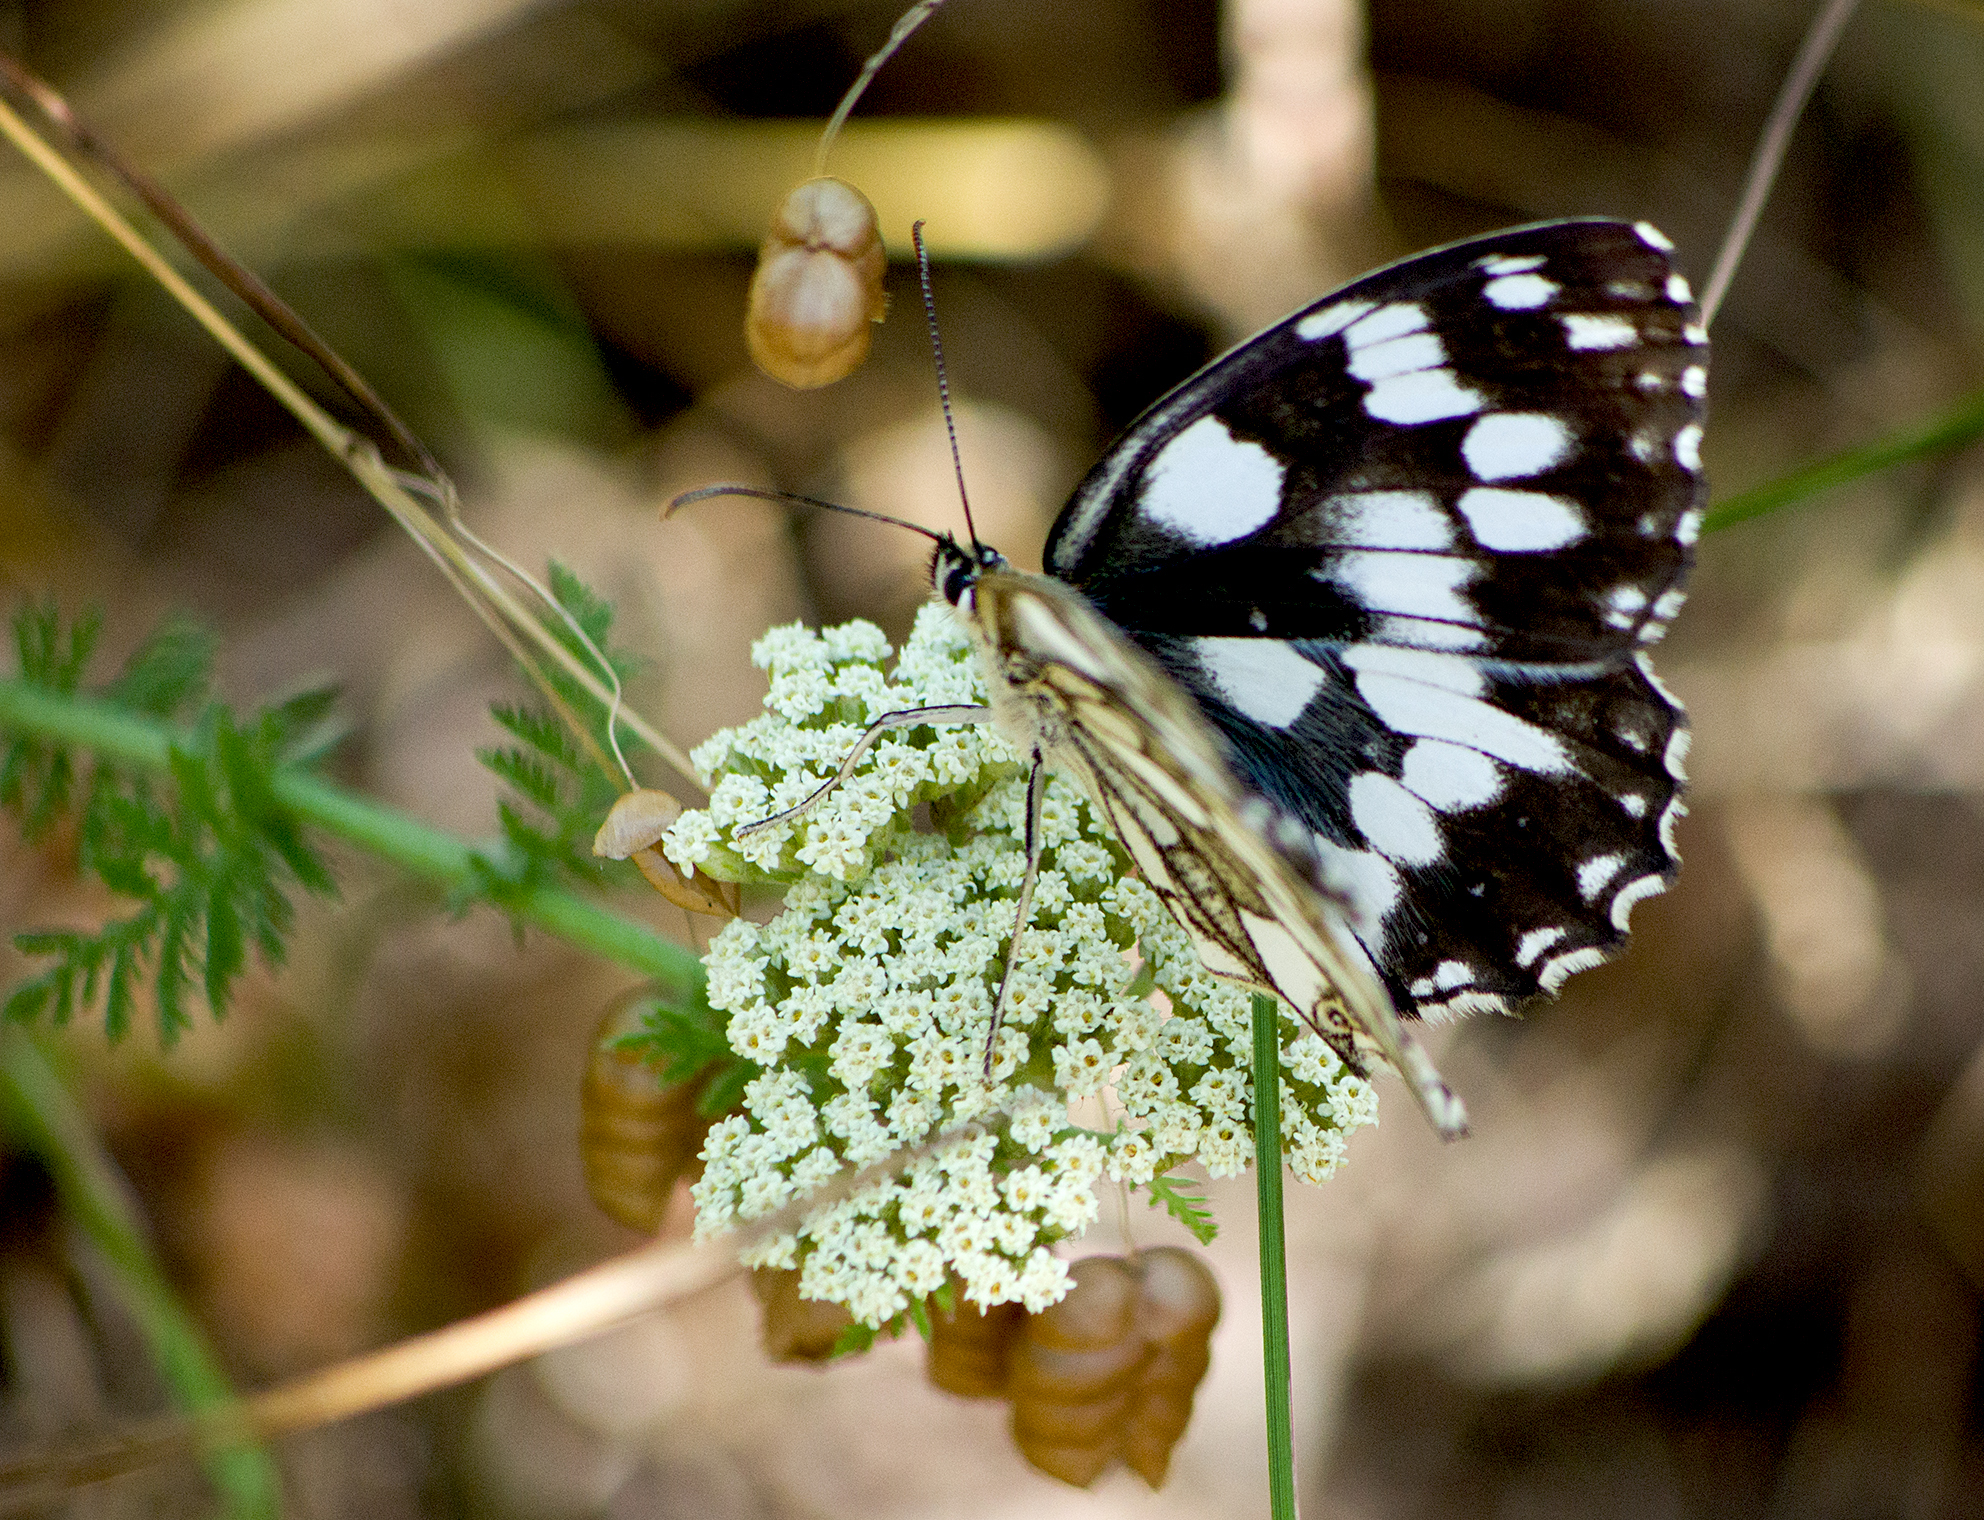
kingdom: Animalia
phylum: Arthropoda
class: Insecta
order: Lepidoptera
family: Nymphalidae
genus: Melanargia
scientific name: Melanargia galathea
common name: Marbled white
